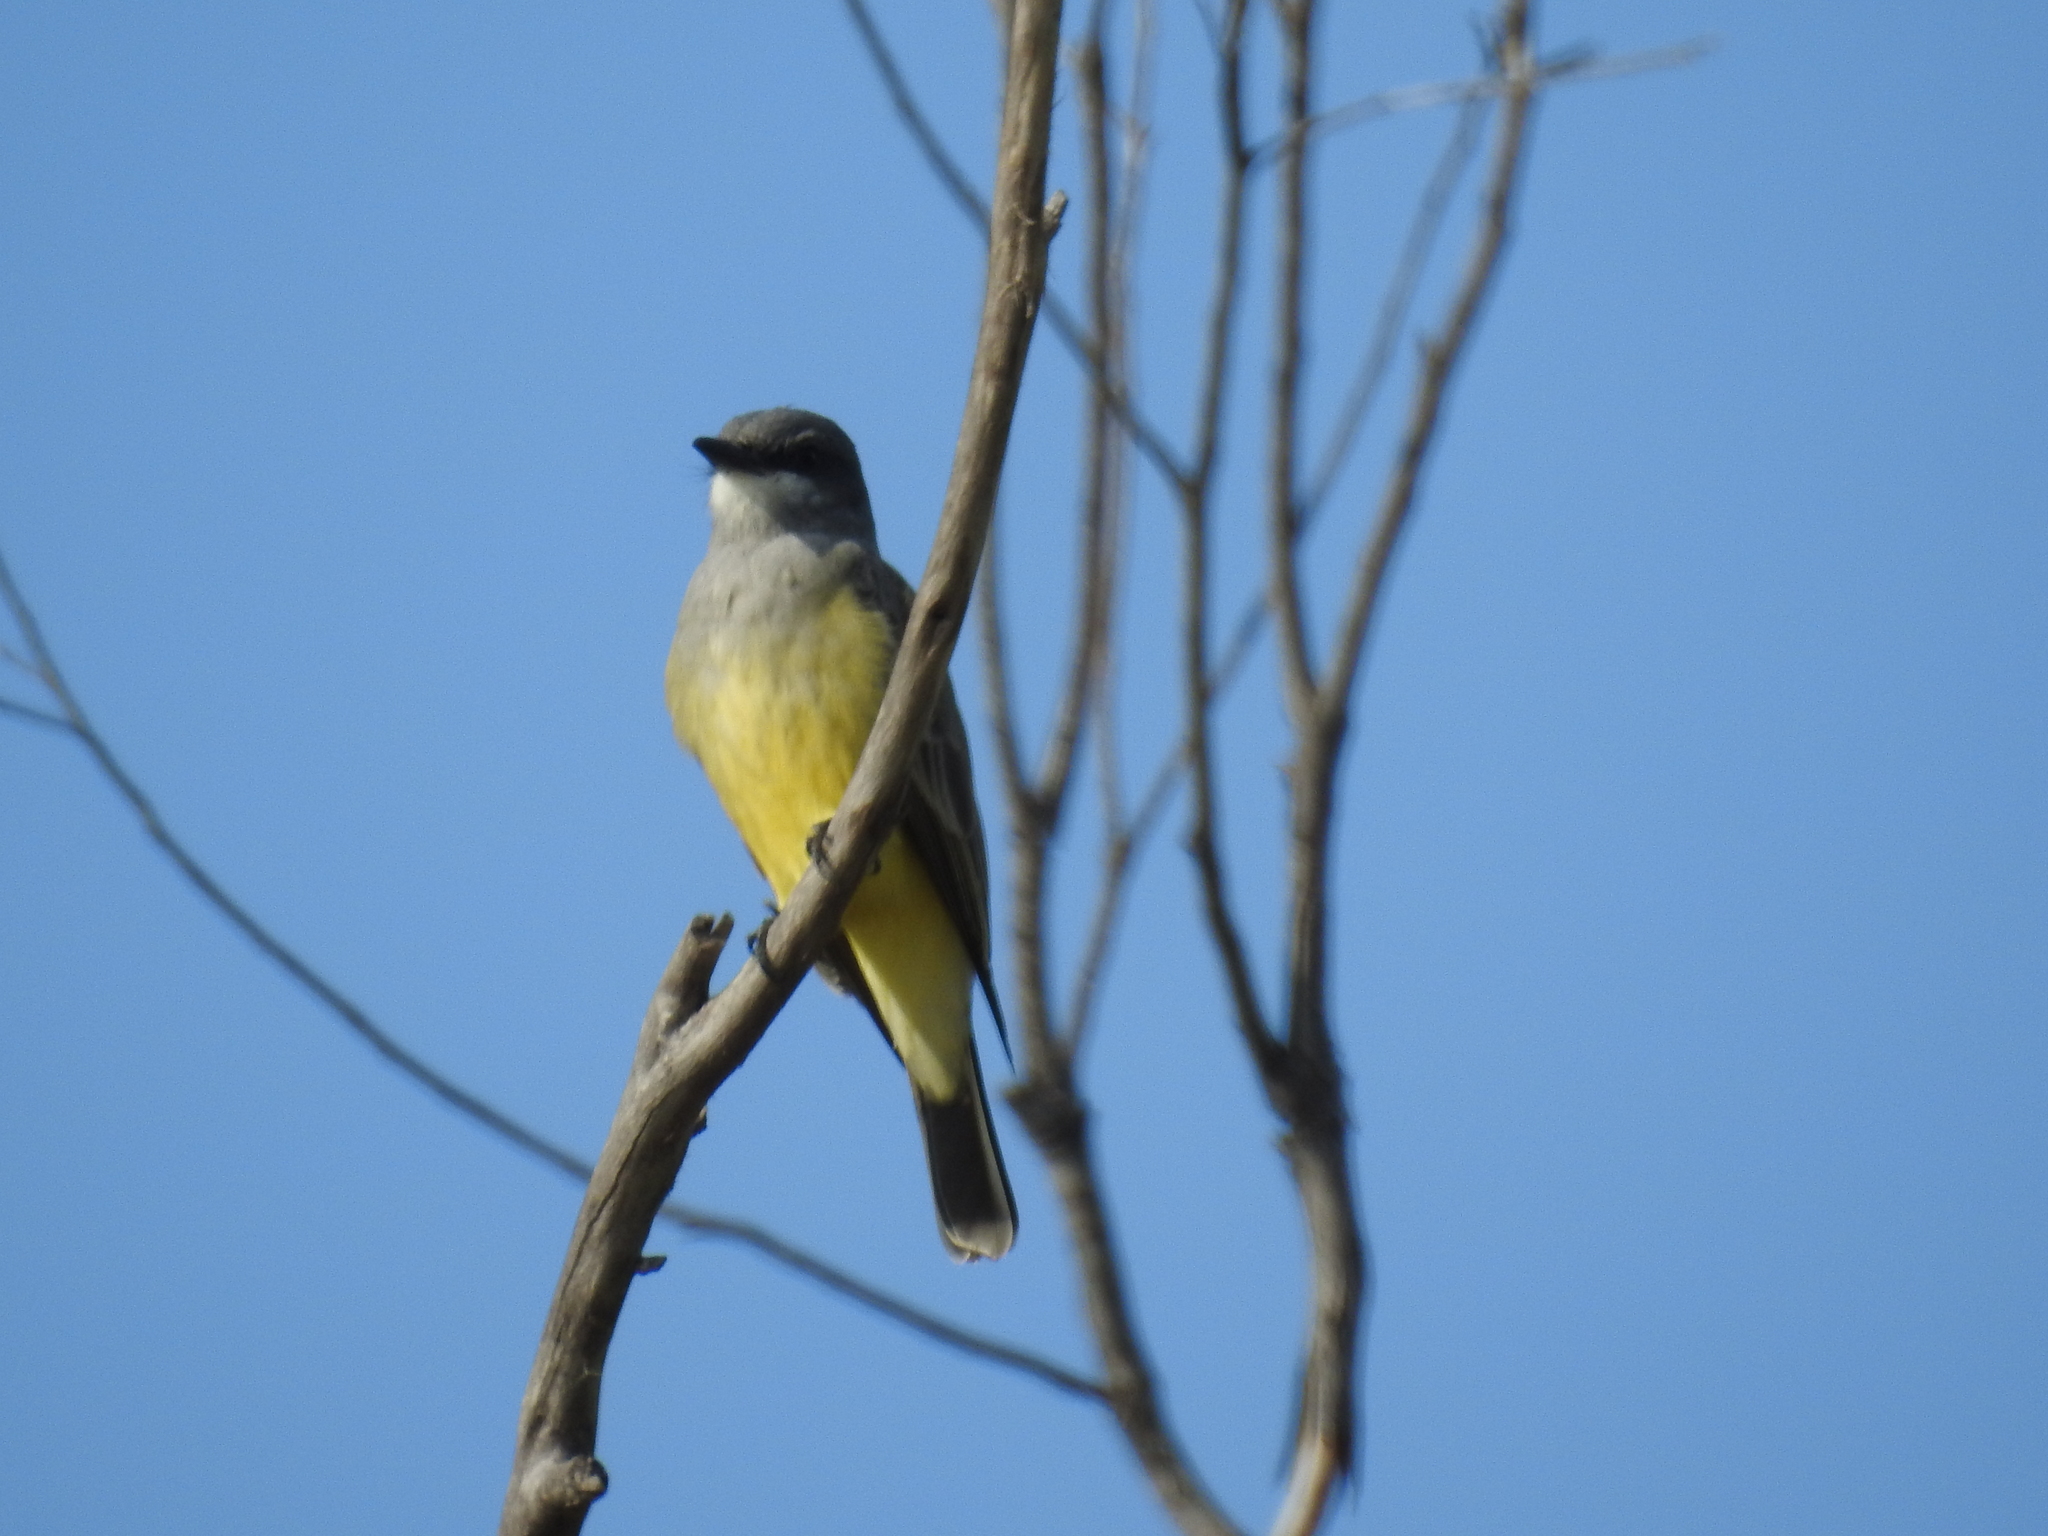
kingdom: Animalia
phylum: Chordata
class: Aves
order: Passeriformes
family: Tyrannidae
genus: Tyrannus
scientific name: Tyrannus vociferans
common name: Cassin's kingbird
